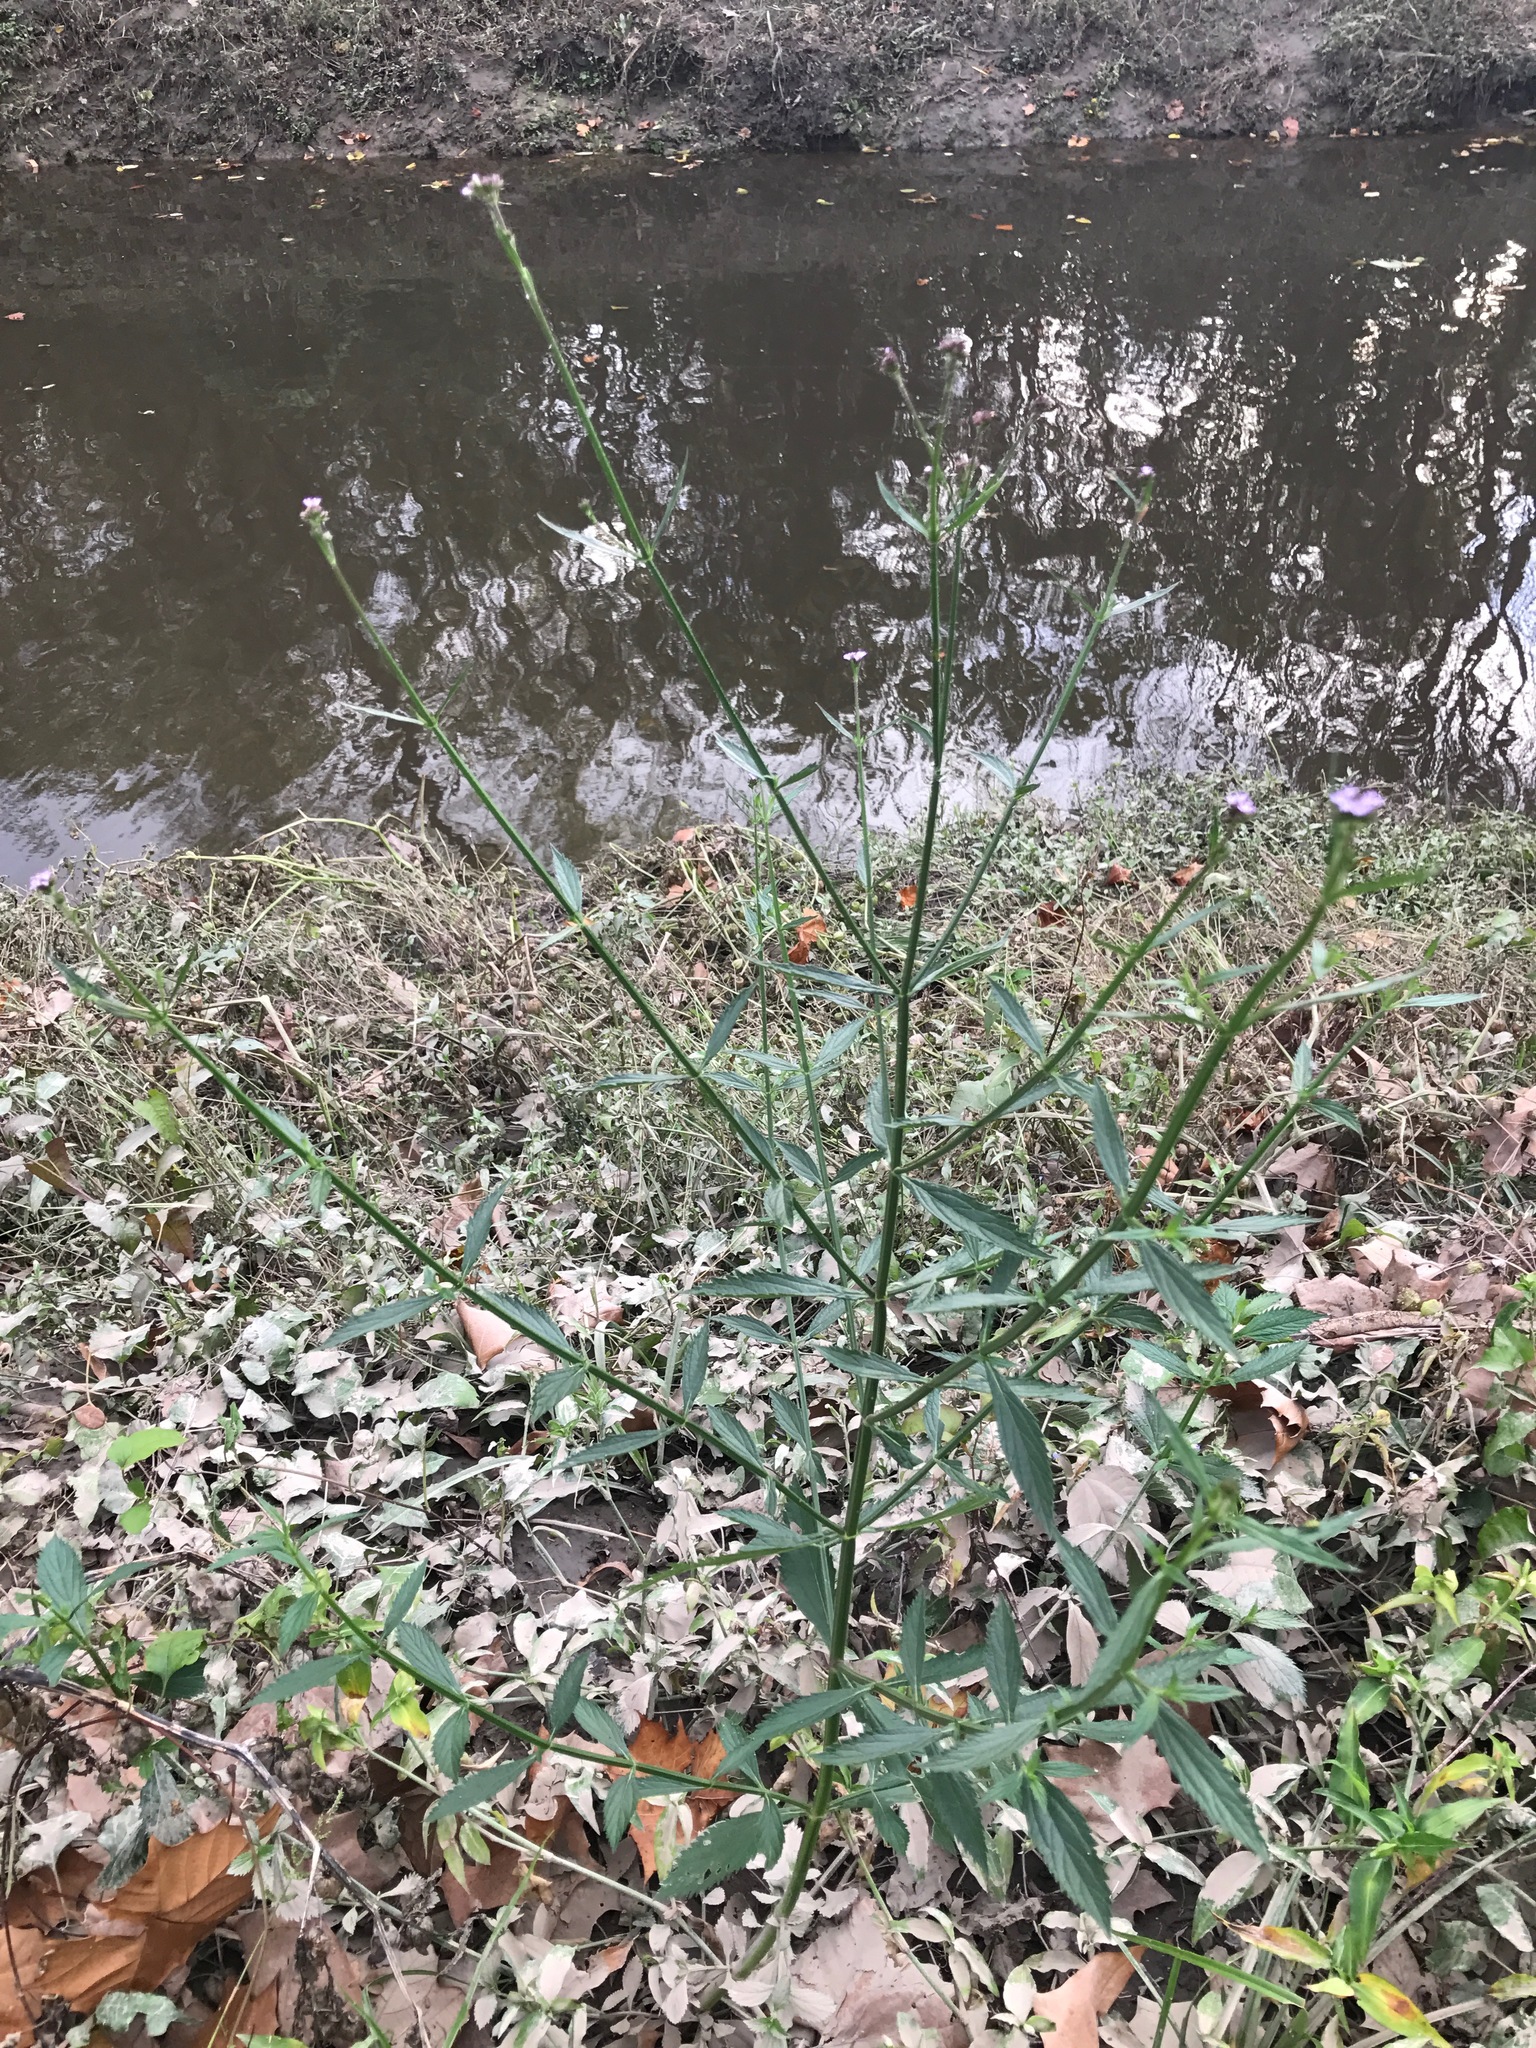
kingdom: Plantae
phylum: Tracheophyta
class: Magnoliopsida
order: Lamiales
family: Verbenaceae
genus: Verbena
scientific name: Verbena brasiliensis
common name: Brazilian vervain
